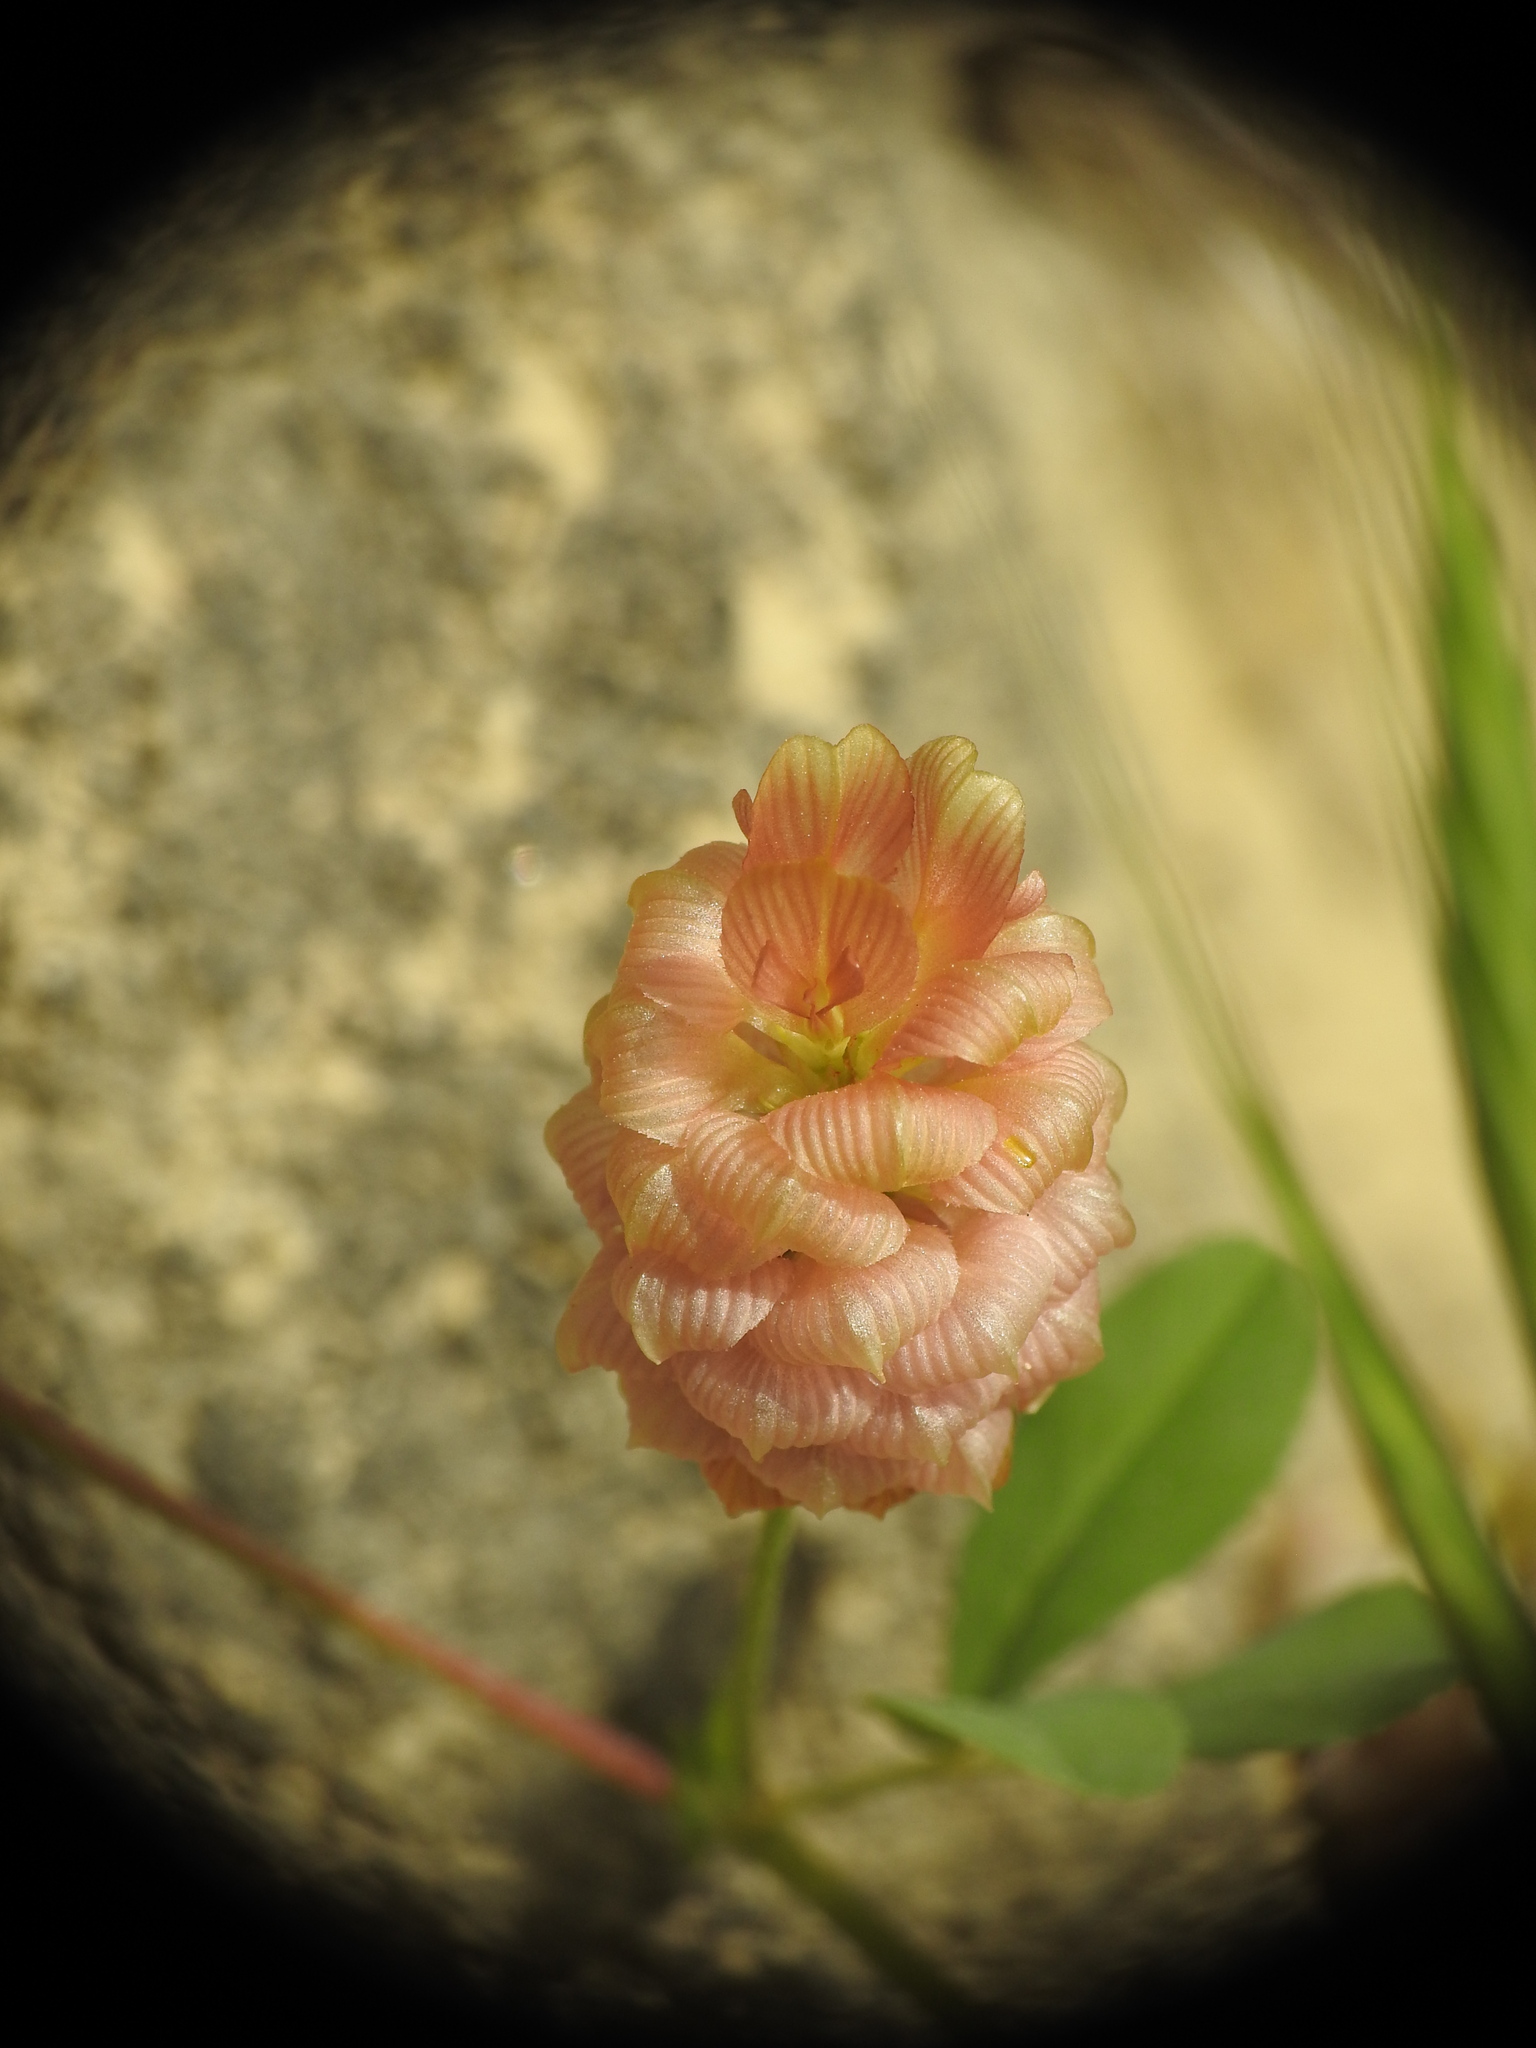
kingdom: Plantae
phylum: Tracheophyta
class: Magnoliopsida
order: Fabales
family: Fabaceae
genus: Trifolium
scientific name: Trifolium campestre
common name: Field clover
